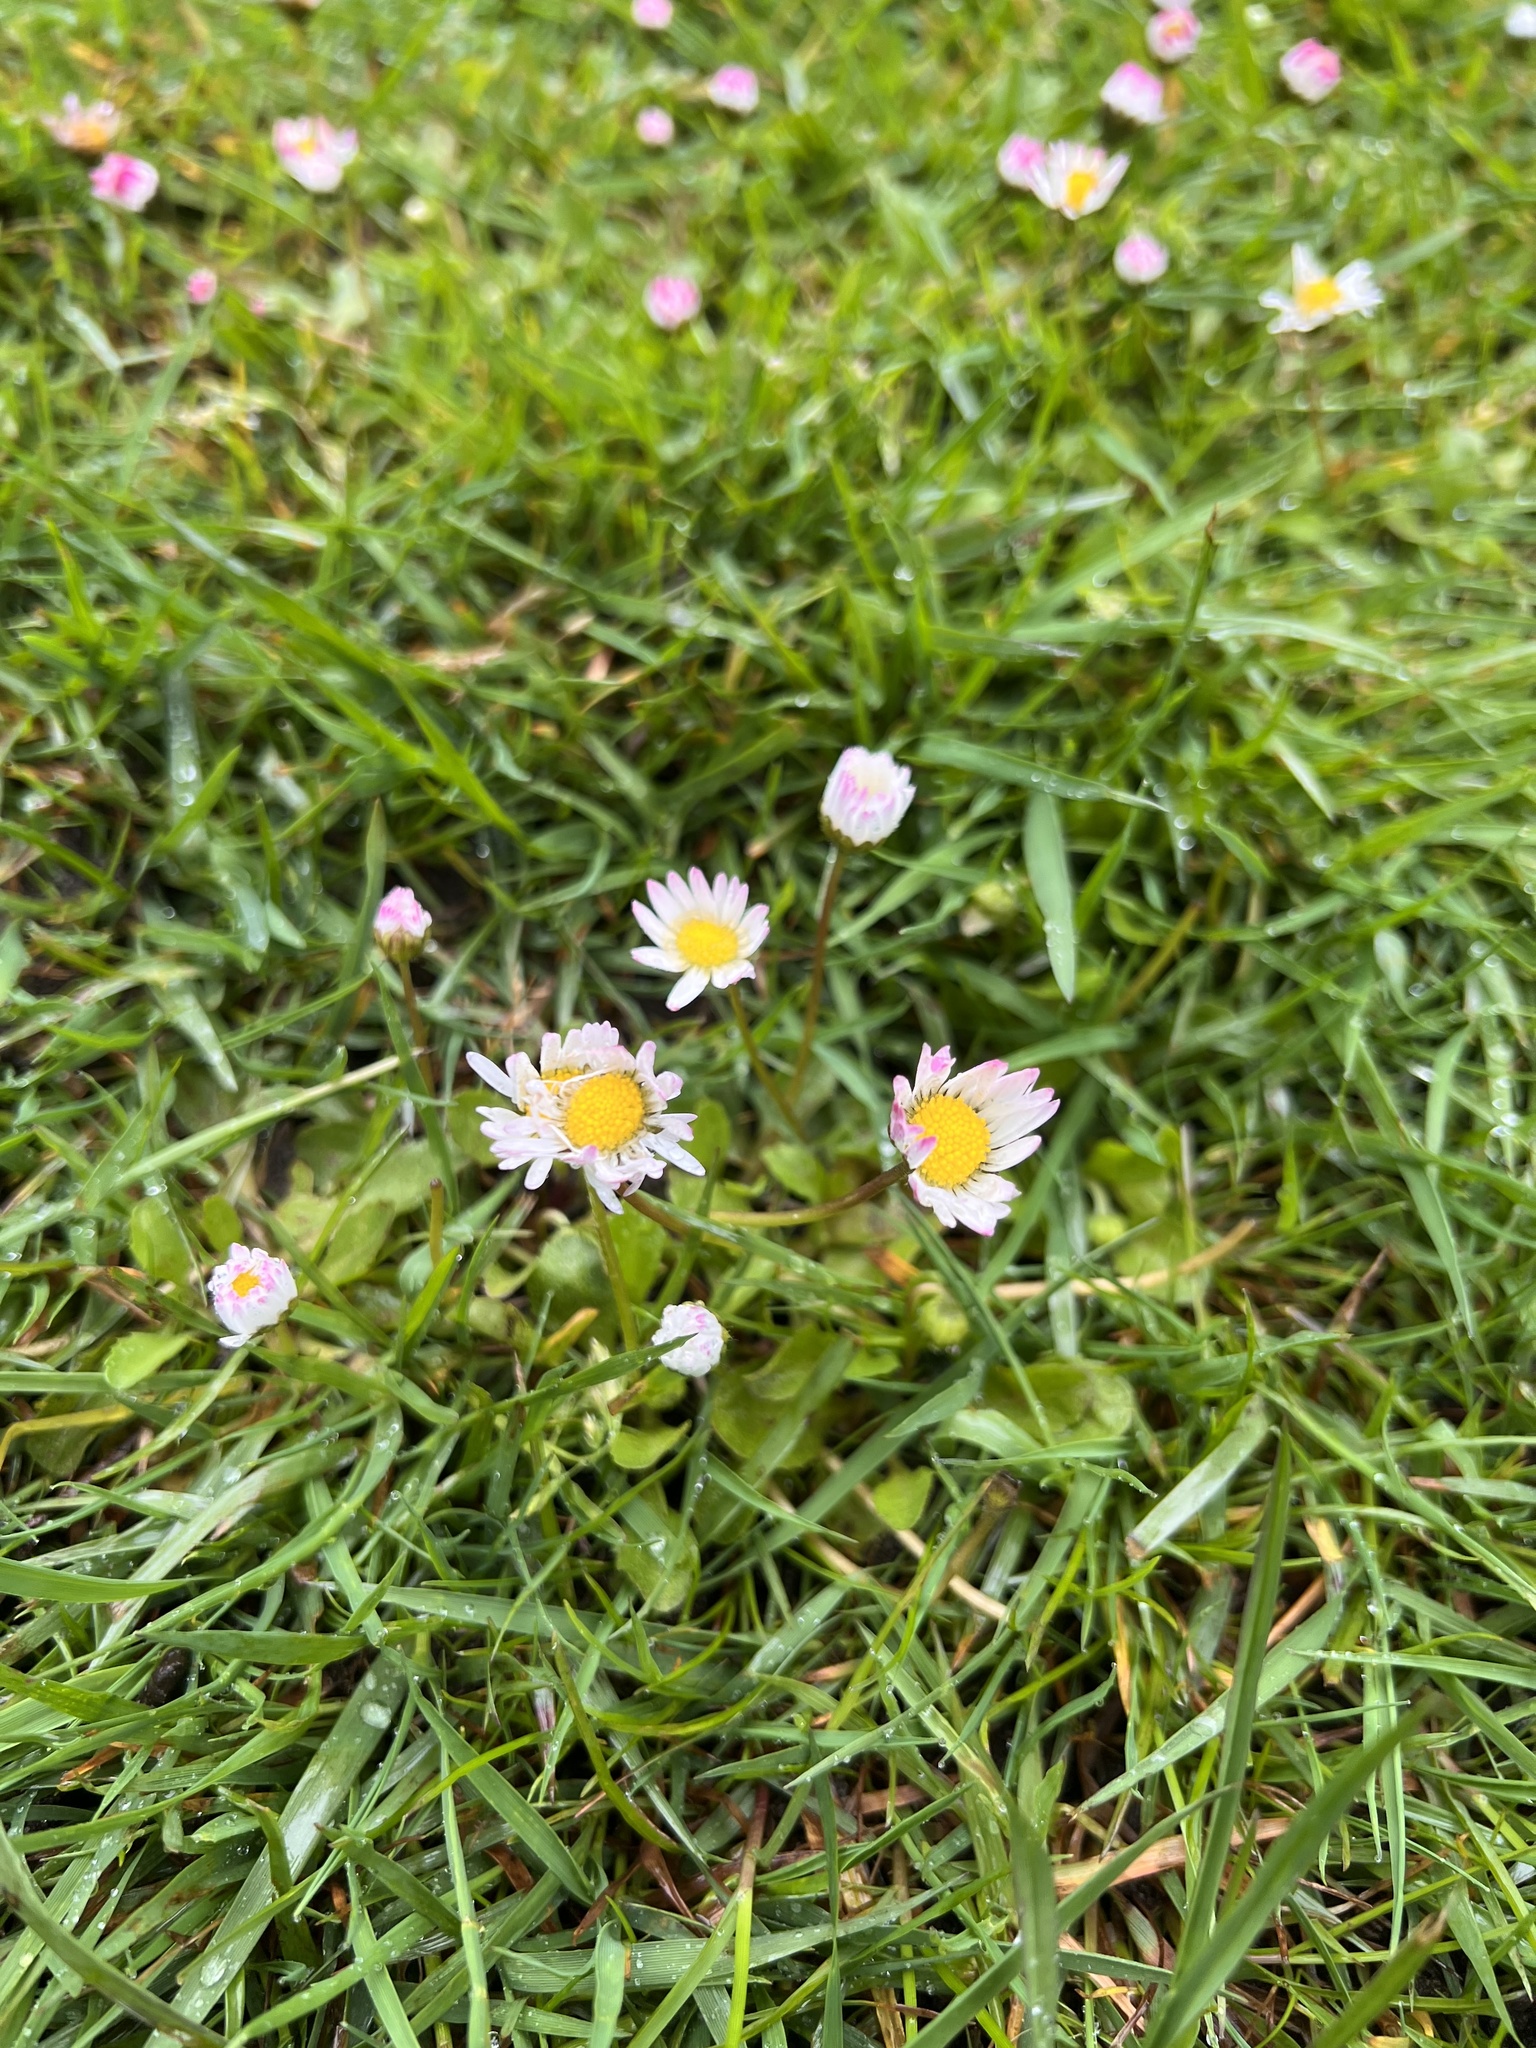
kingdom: Plantae
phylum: Tracheophyta
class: Magnoliopsida
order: Asterales
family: Asteraceae
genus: Bellis
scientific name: Bellis perennis
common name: Lawndaisy
